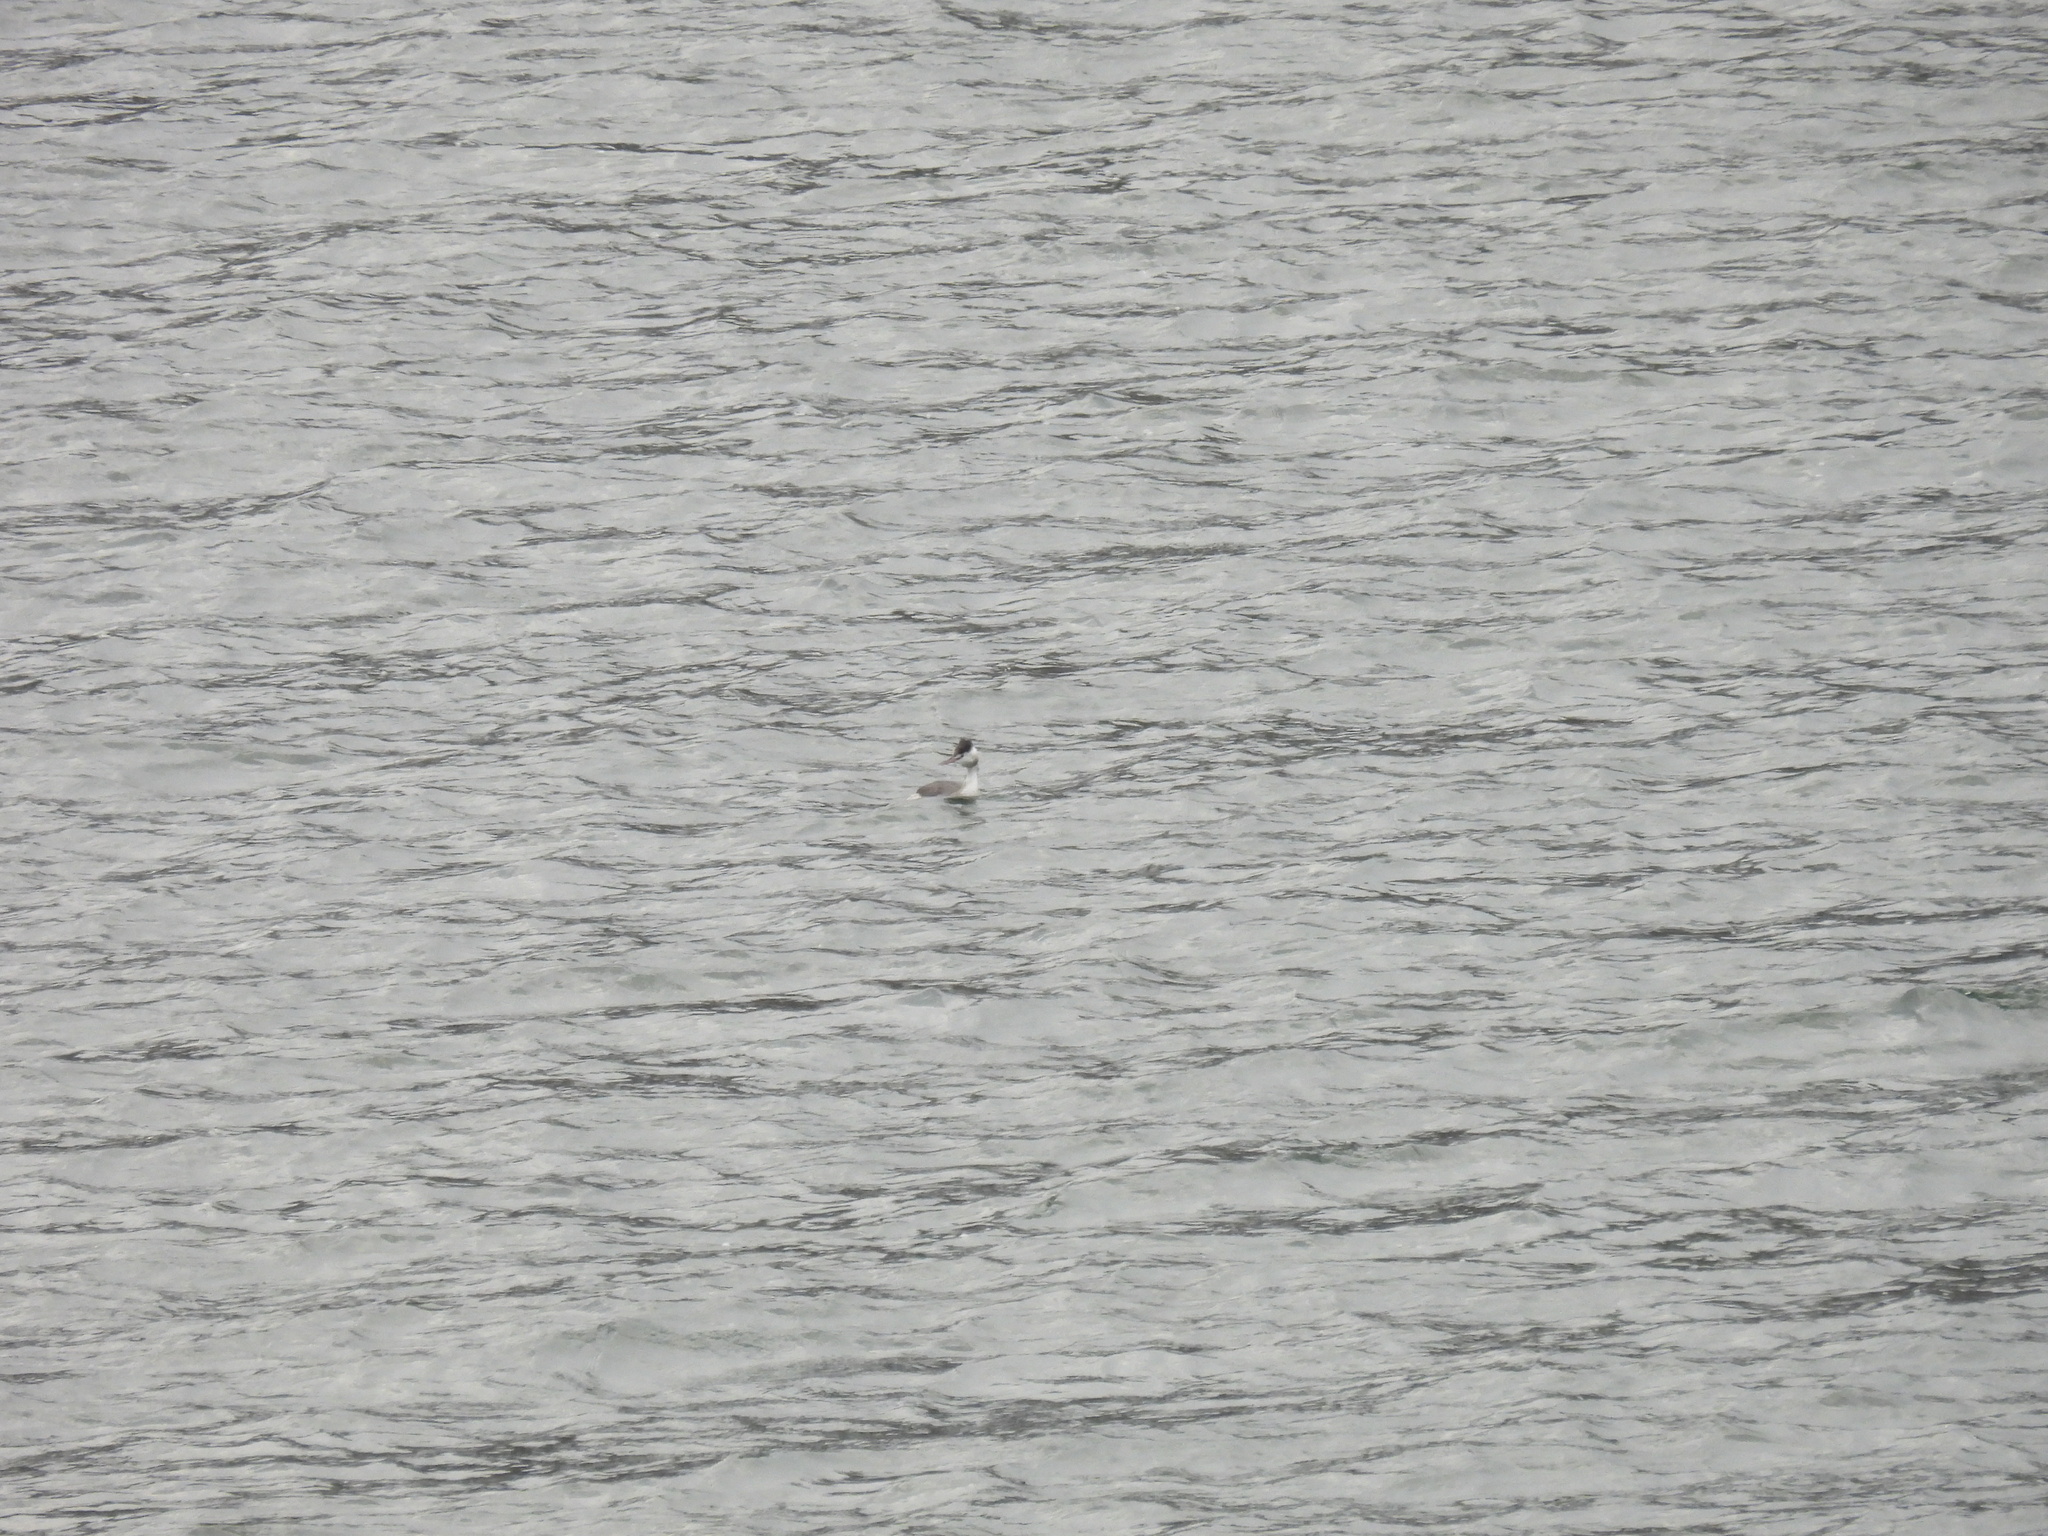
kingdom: Animalia
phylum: Chordata
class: Aves
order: Podicipediformes
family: Podicipedidae
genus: Podiceps
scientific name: Podiceps cristatus
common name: Great crested grebe
